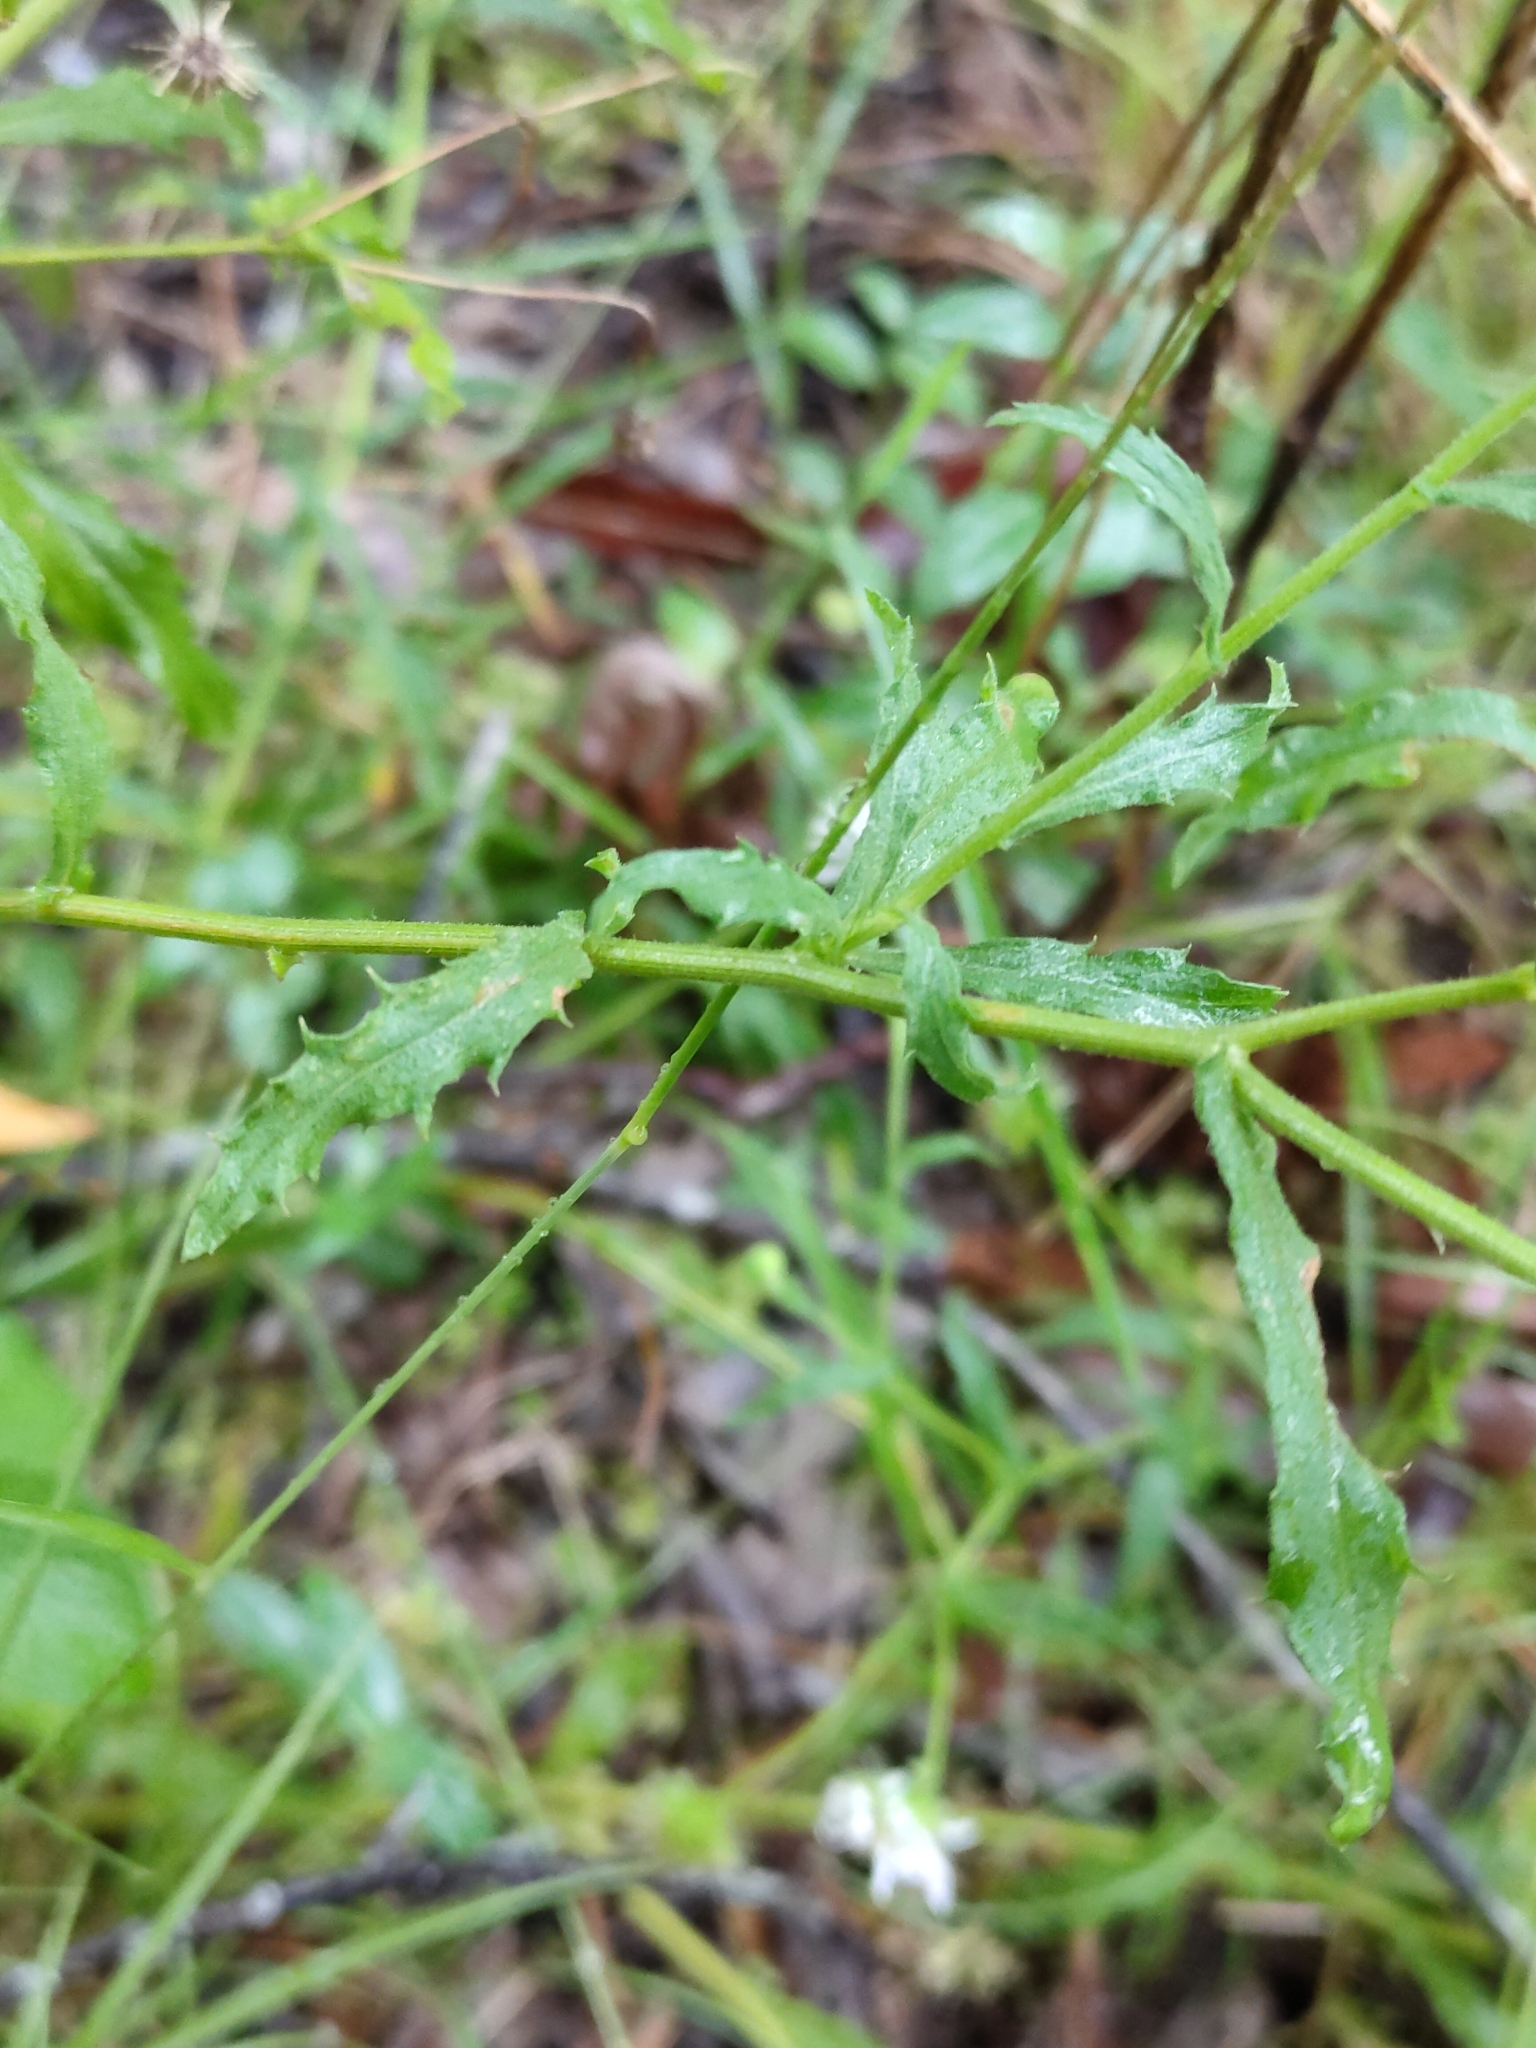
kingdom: Plantae
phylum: Tracheophyta
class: Magnoliopsida
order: Asterales
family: Asteraceae
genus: Calotis
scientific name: Calotis dentex
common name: White bur-daisy
